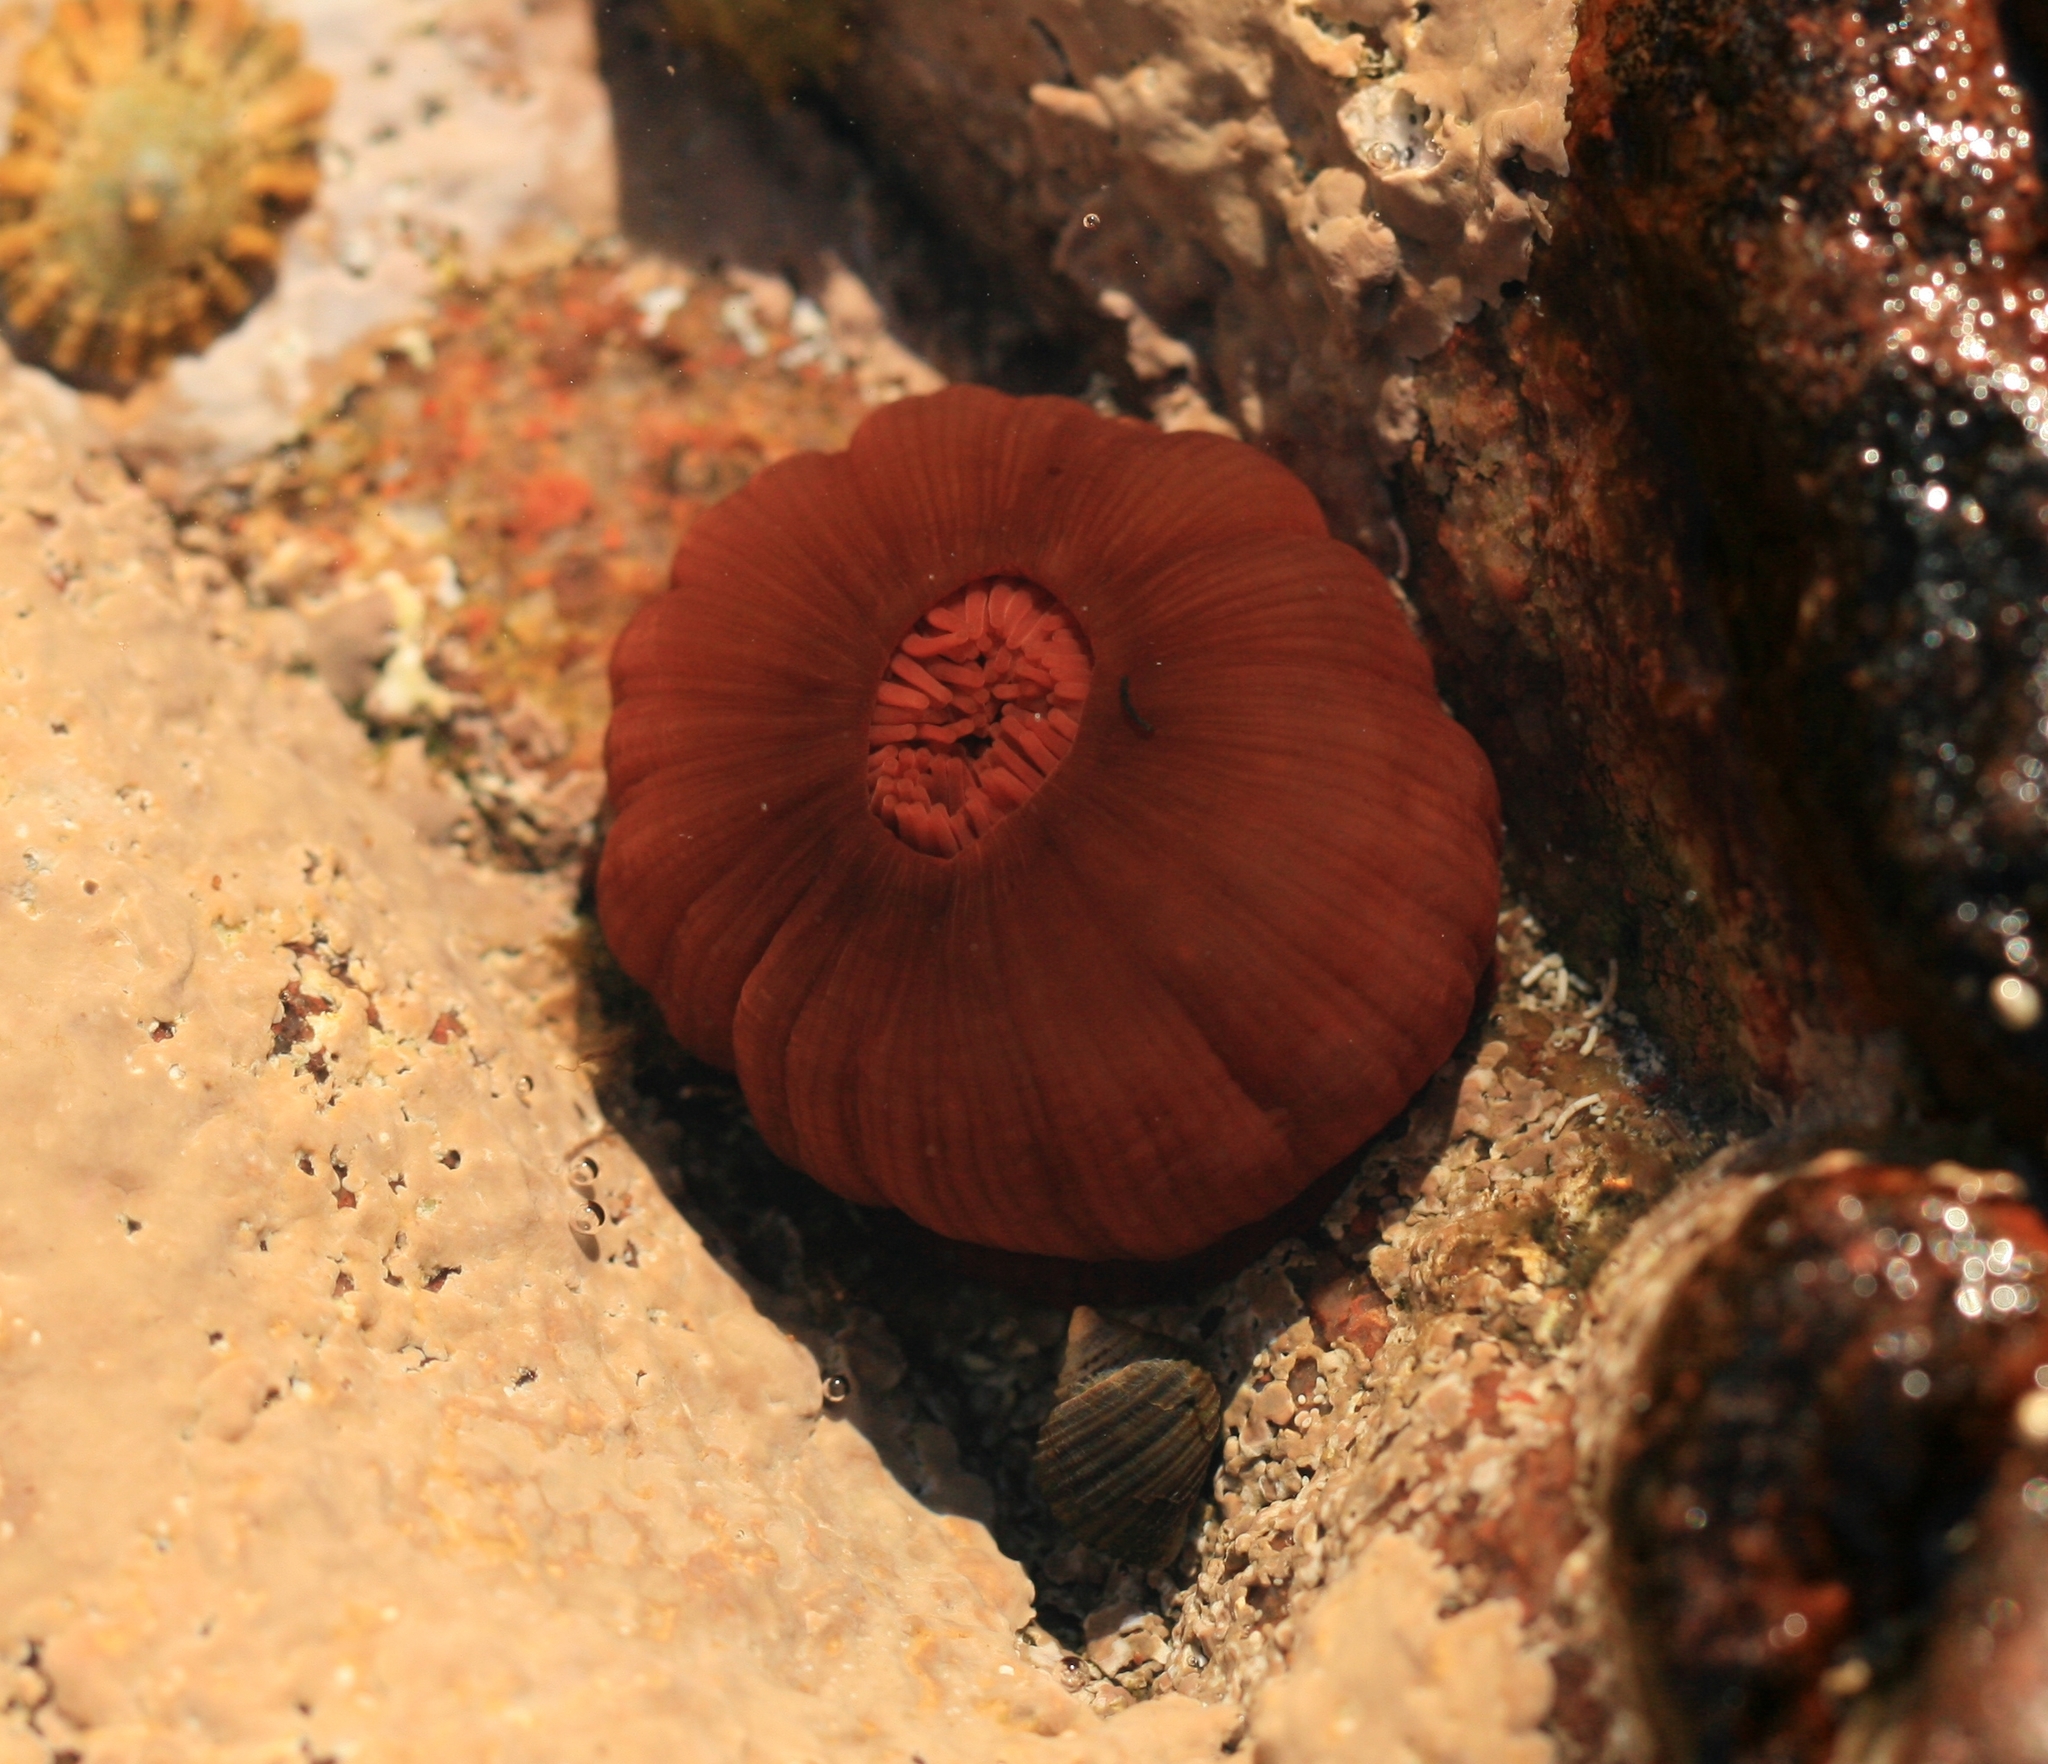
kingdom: Animalia
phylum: Cnidaria
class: Anthozoa
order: Actiniaria
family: Actiniidae
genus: Actinia
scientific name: Actinia equina
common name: Beadlet anemone
